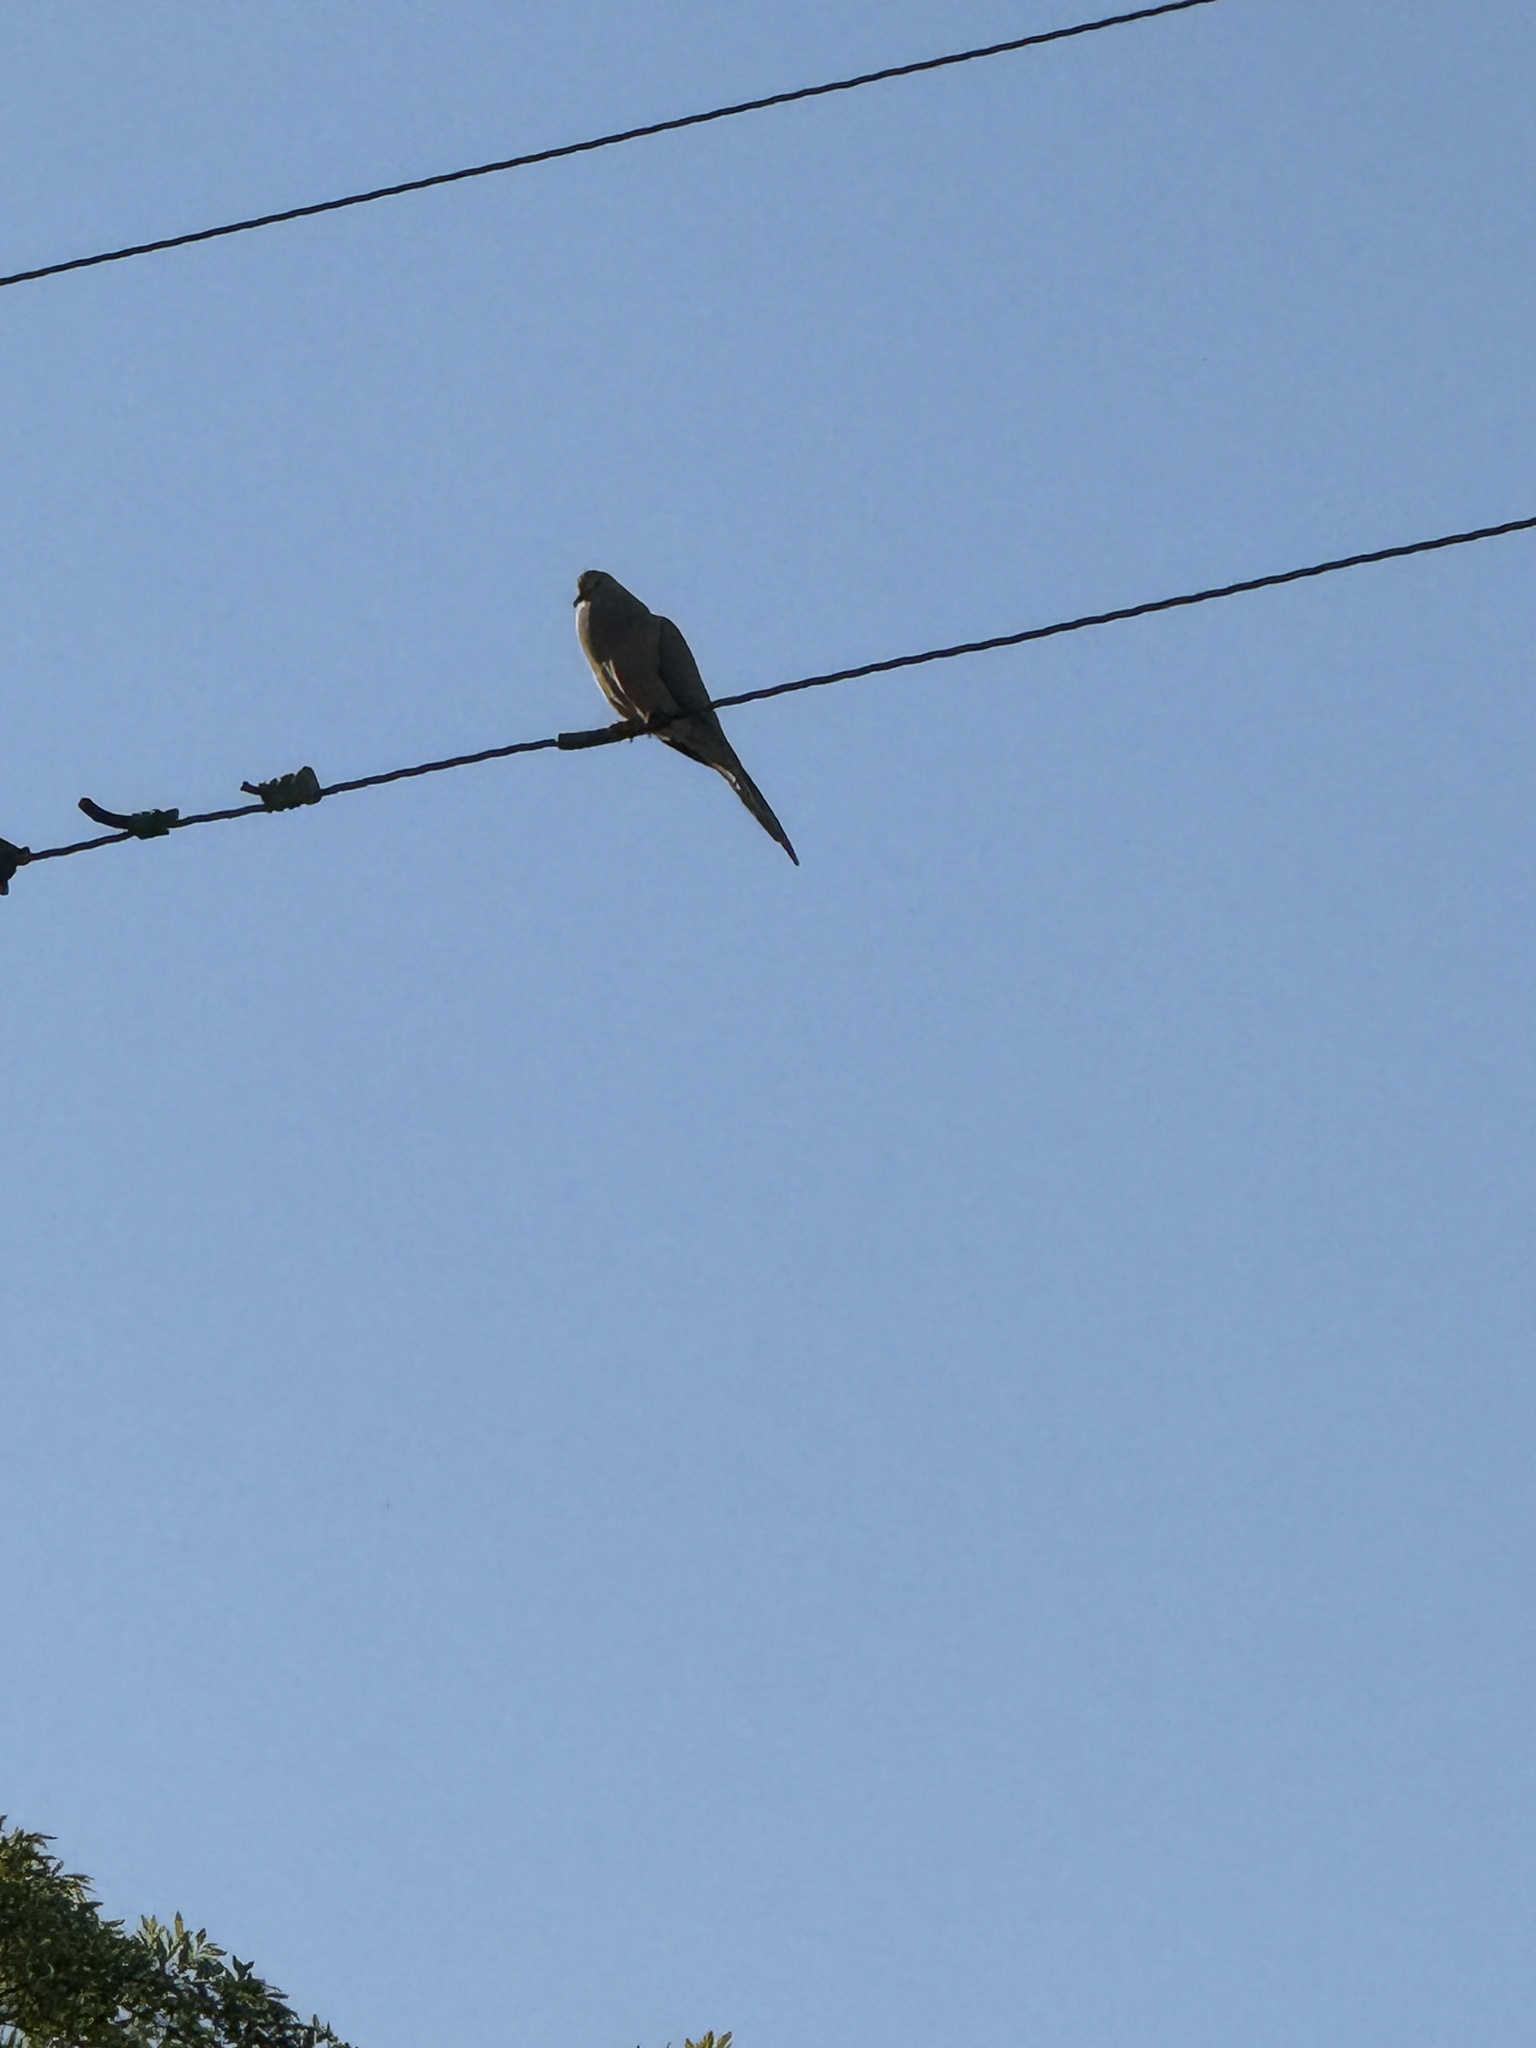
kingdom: Animalia
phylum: Chordata
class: Aves
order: Columbiformes
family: Columbidae
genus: Zenaida
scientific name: Zenaida macroura
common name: Mourning dove
